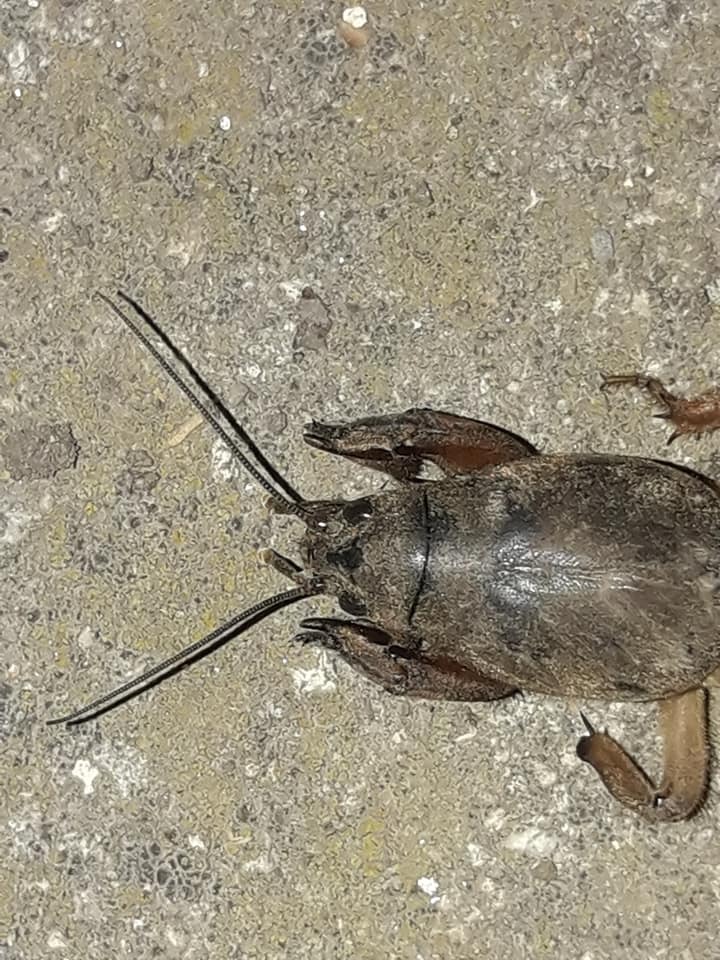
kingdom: Animalia
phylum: Arthropoda
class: Insecta
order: Orthoptera
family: Gryllotalpidae
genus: Gryllotalpa
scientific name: Gryllotalpa stepposa
